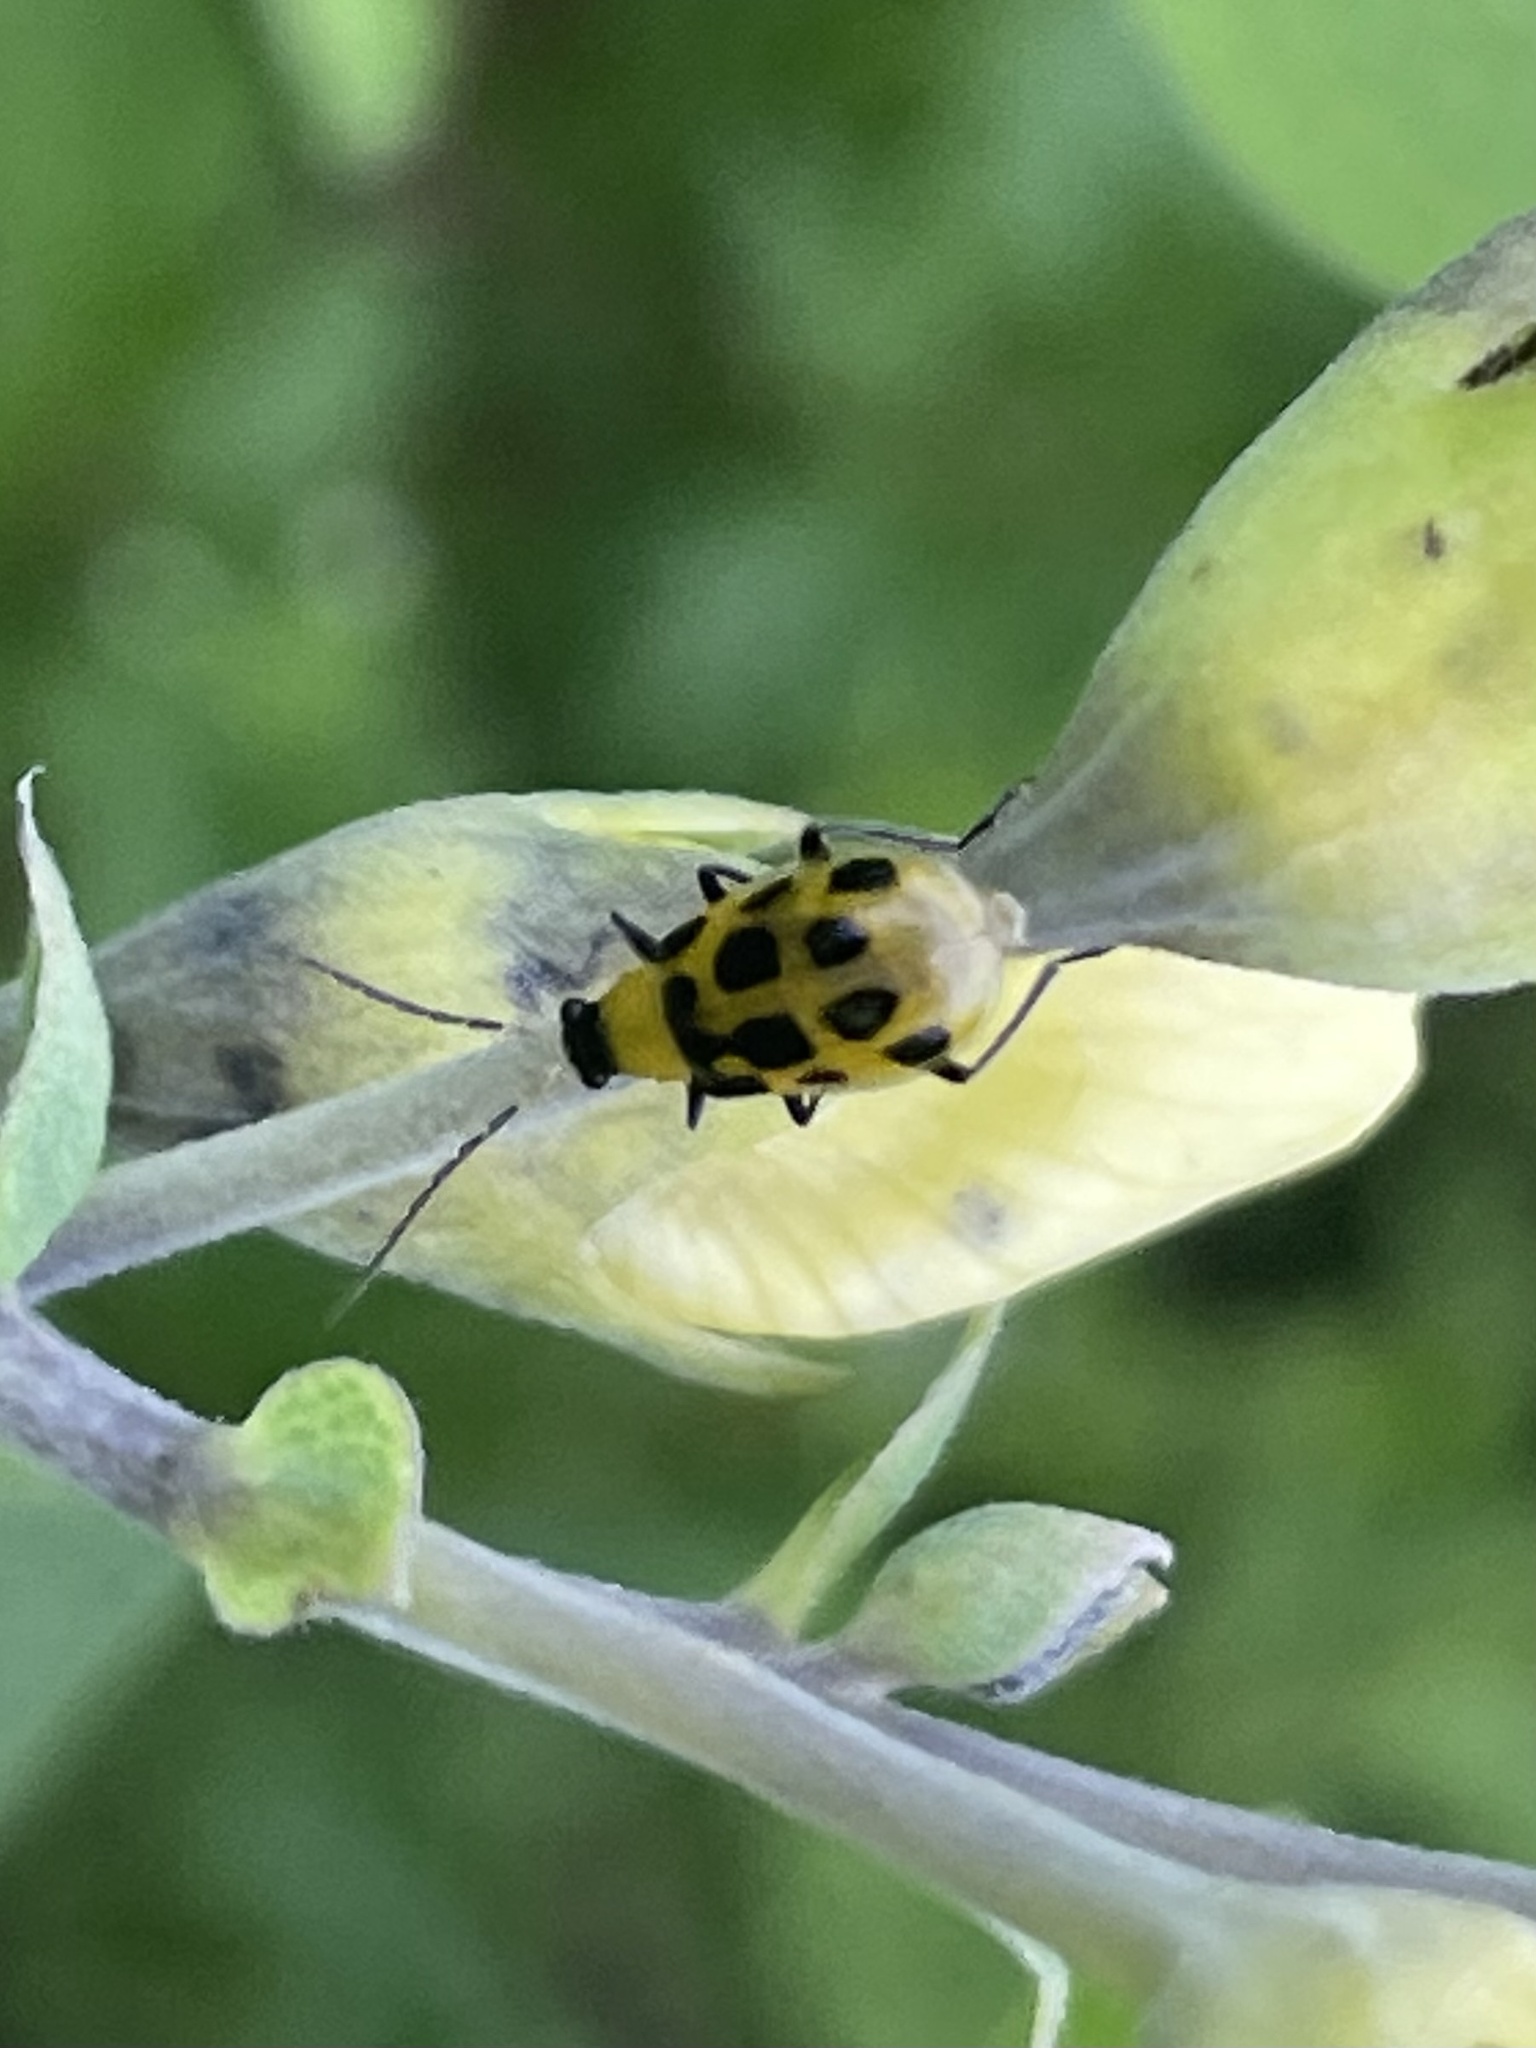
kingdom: Animalia
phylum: Arthropoda
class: Insecta
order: Coleoptera
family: Chrysomelidae
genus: Diabrotica
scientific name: Diabrotica undecimpunctata
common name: Spotted cucumber beetle
